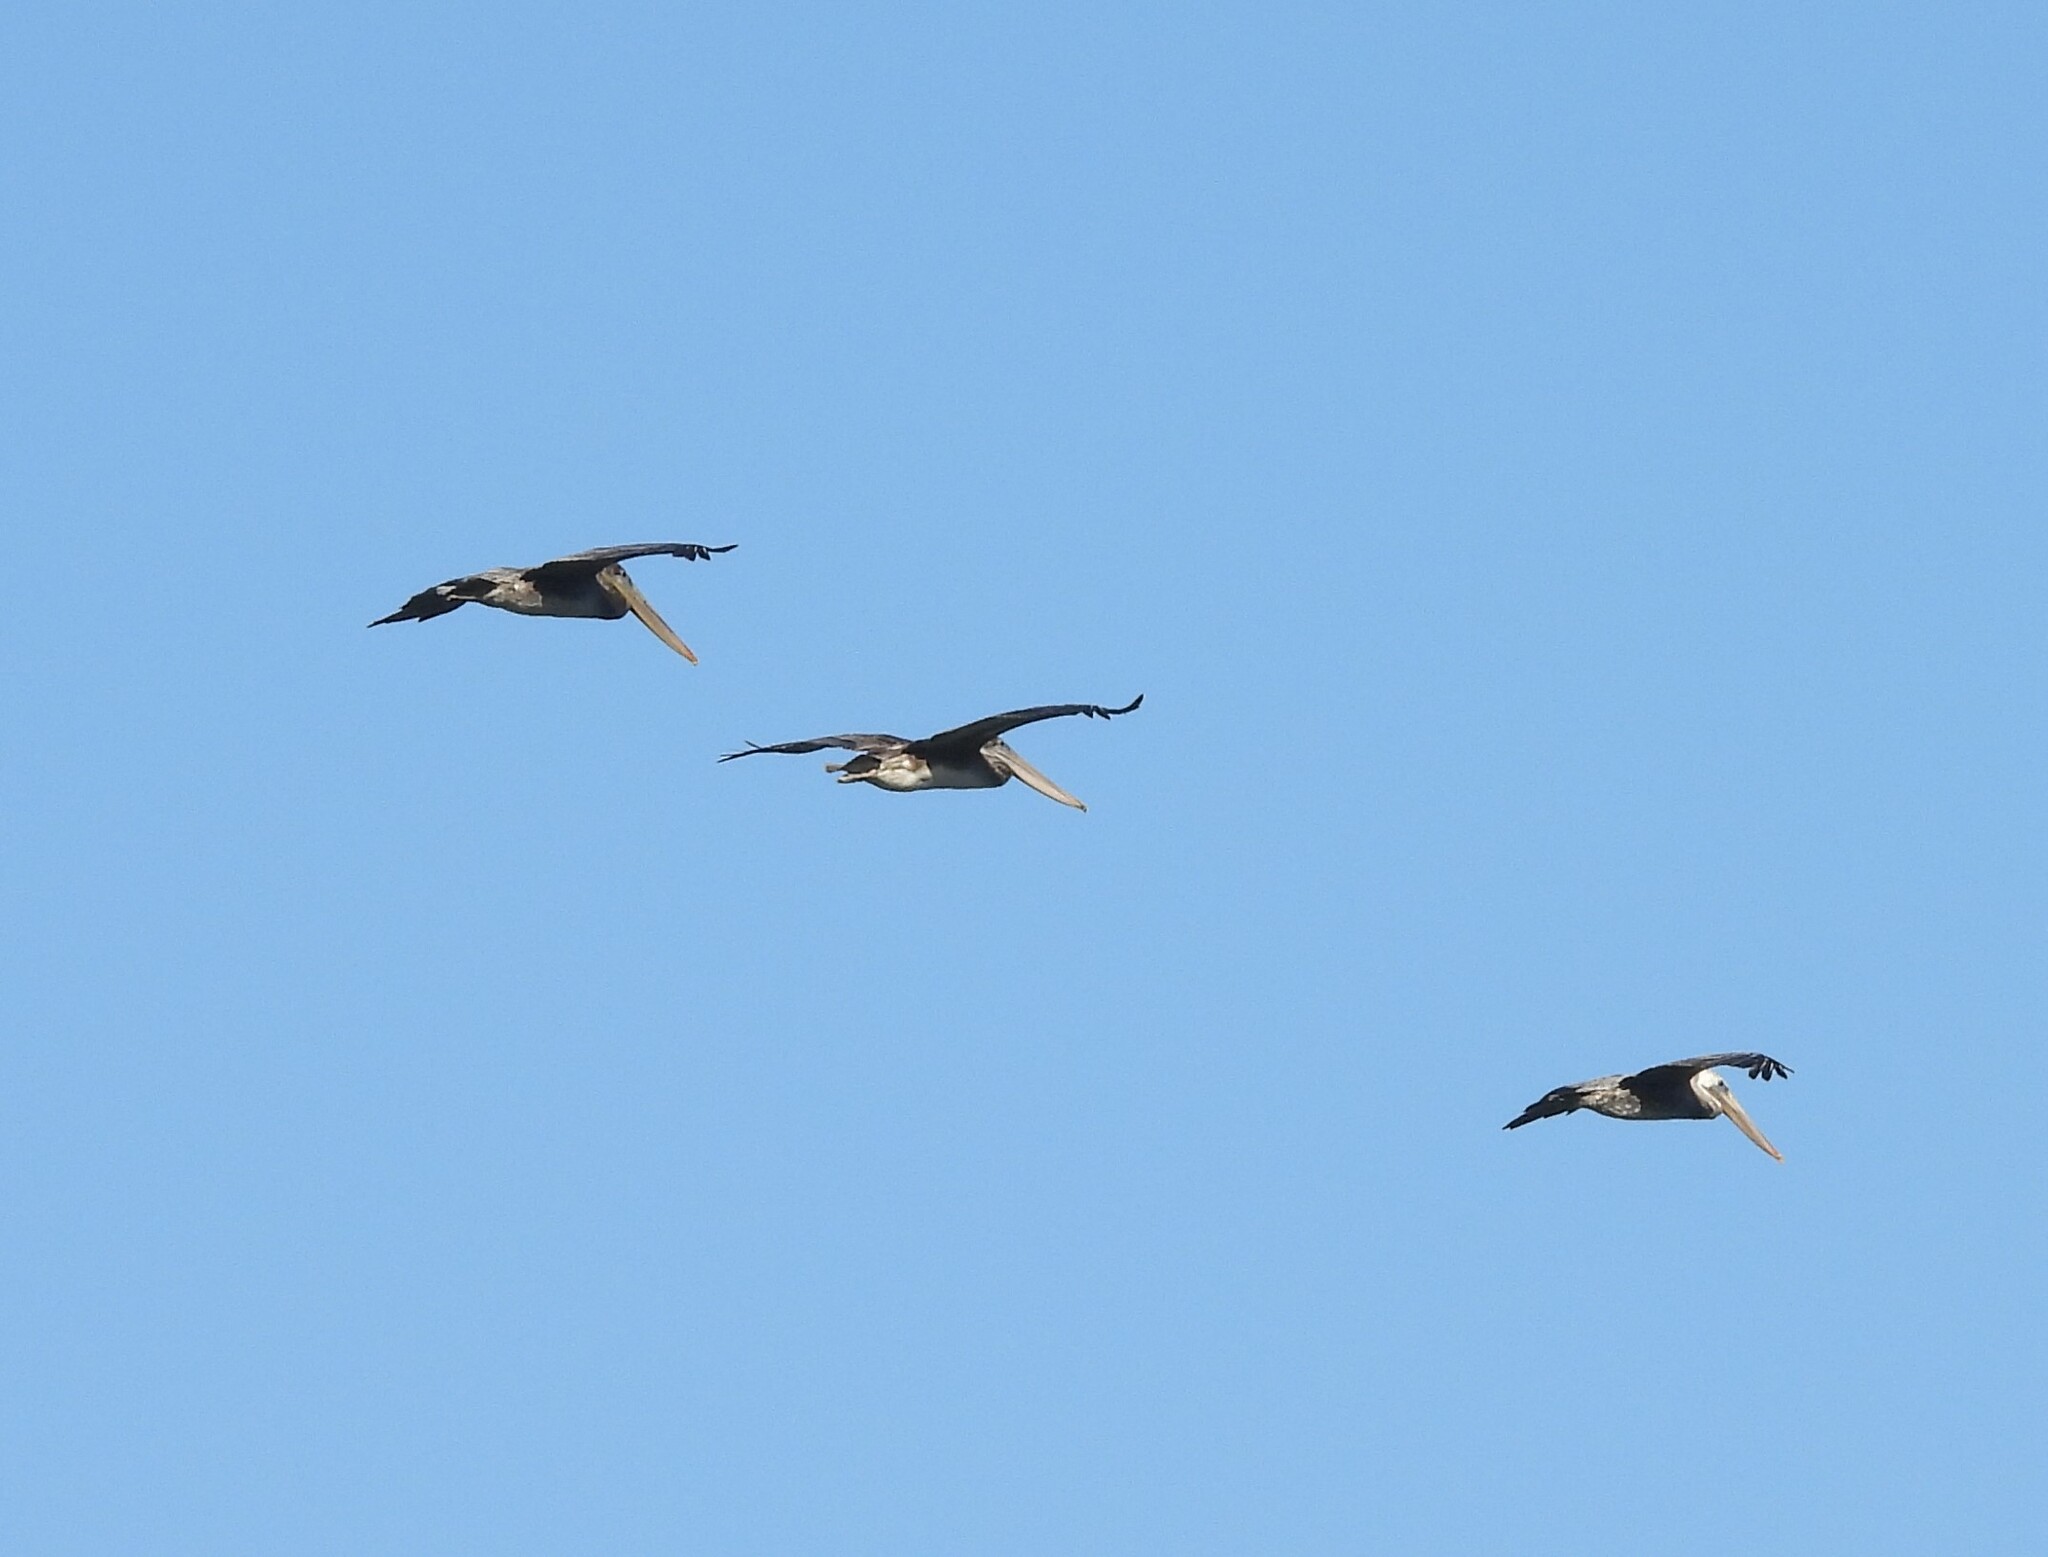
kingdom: Animalia
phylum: Chordata
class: Aves
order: Pelecaniformes
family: Pelecanidae
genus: Pelecanus
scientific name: Pelecanus occidentalis
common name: Brown pelican
